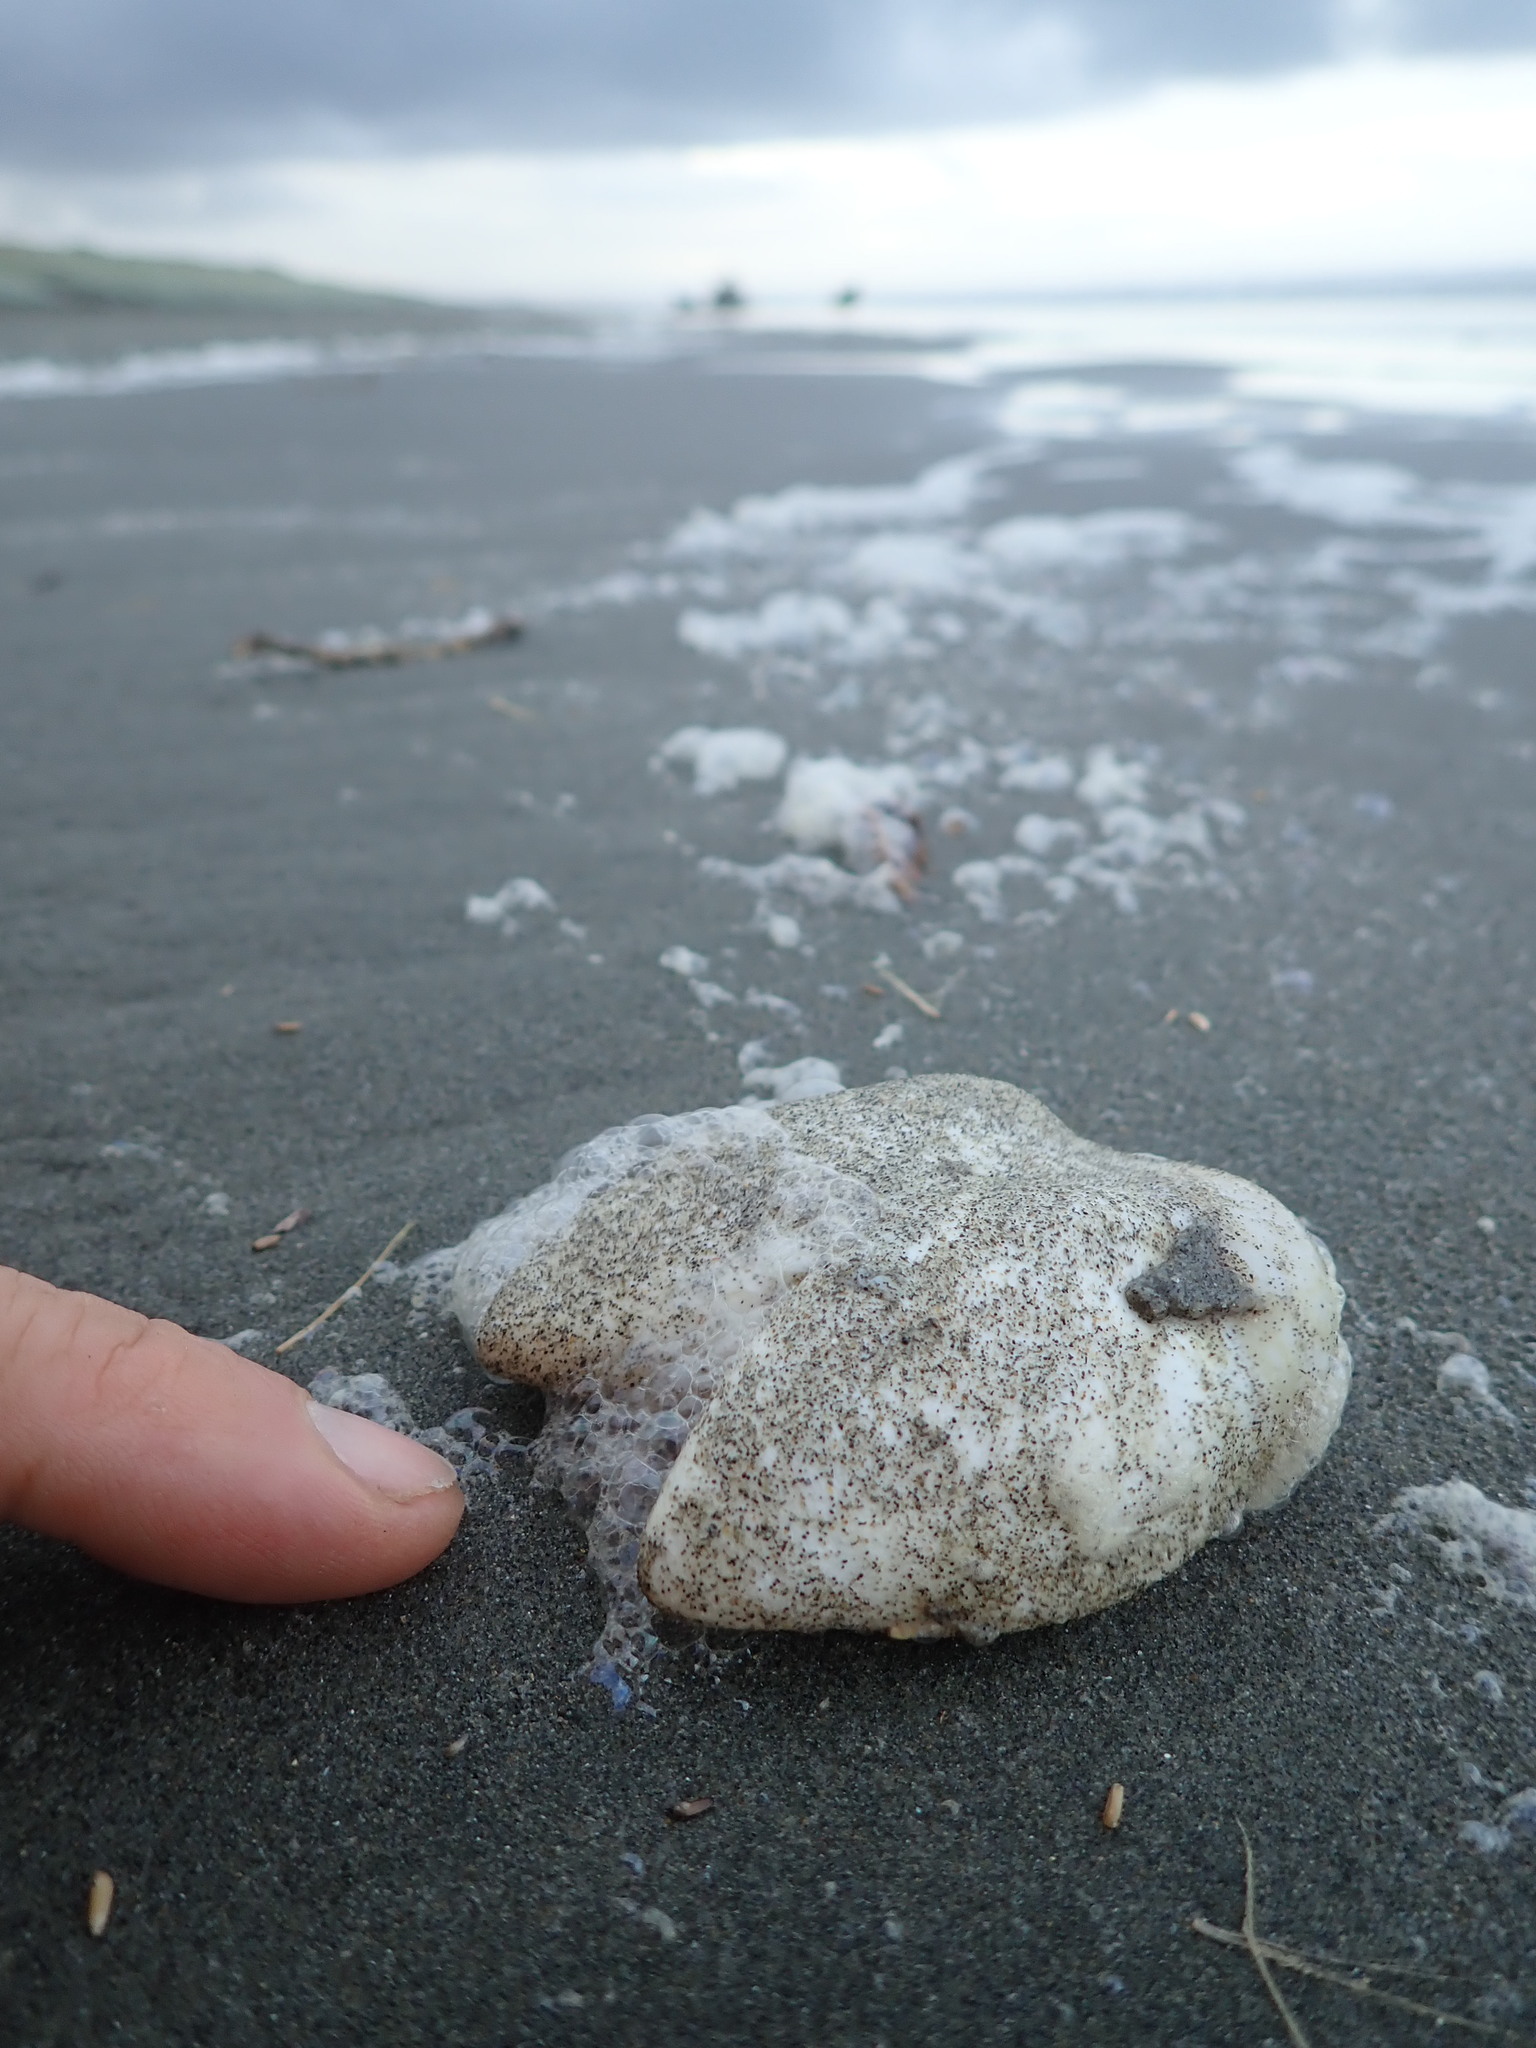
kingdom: Animalia
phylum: Chordata
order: Tetraodontiformes
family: Diodontidae
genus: Allomycterus
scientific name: Allomycterus pilatus
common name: No common name
